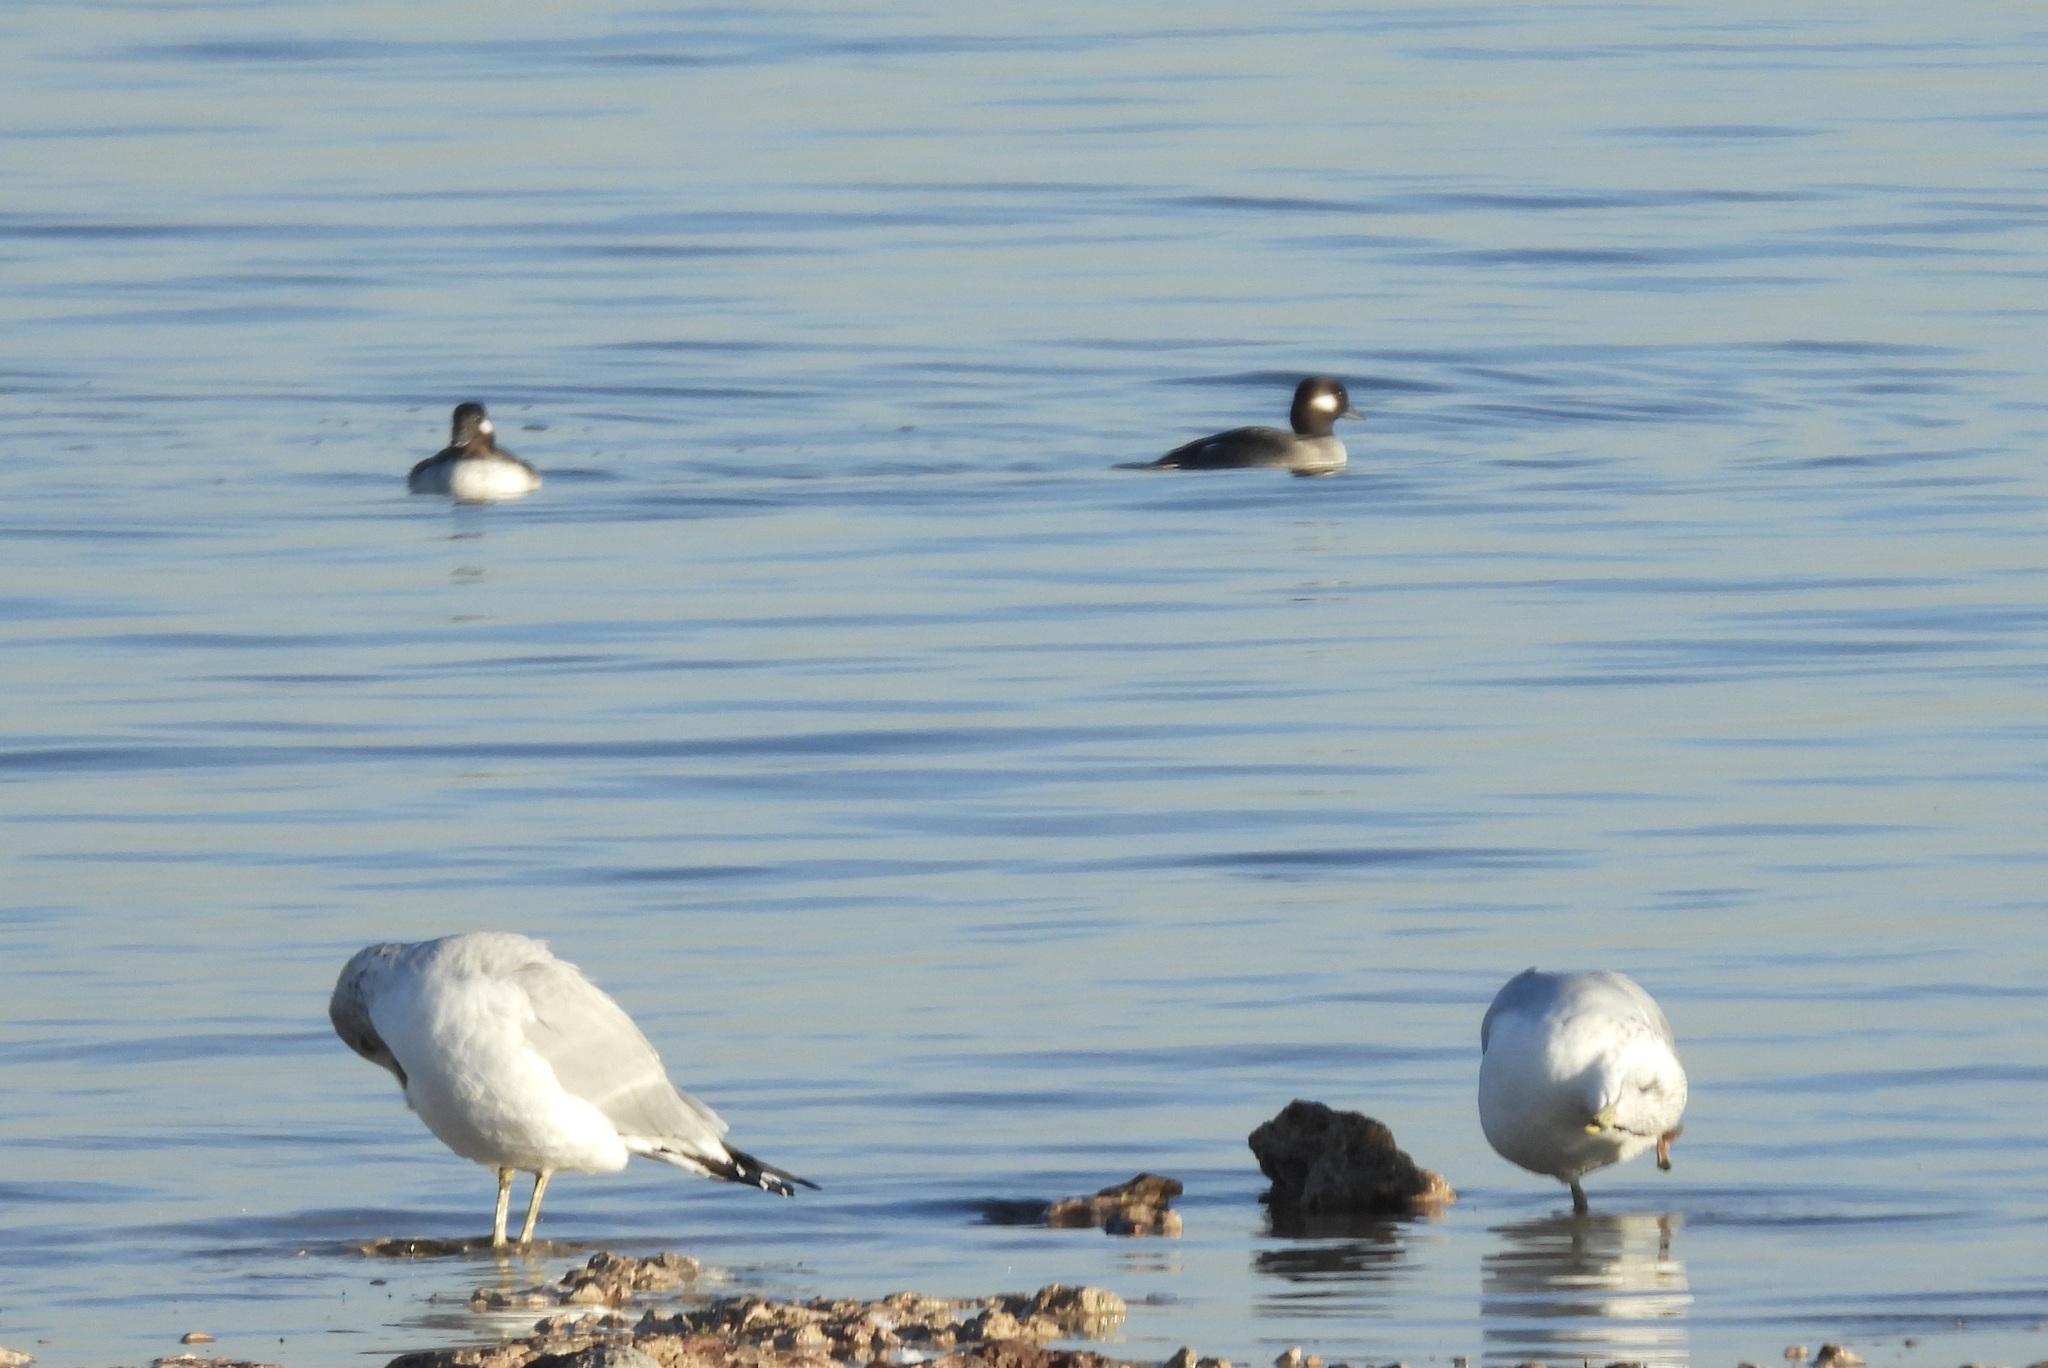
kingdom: Animalia
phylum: Chordata
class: Aves
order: Anseriformes
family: Anatidae
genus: Bucephala
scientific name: Bucephala albeola
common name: Bufflehead
